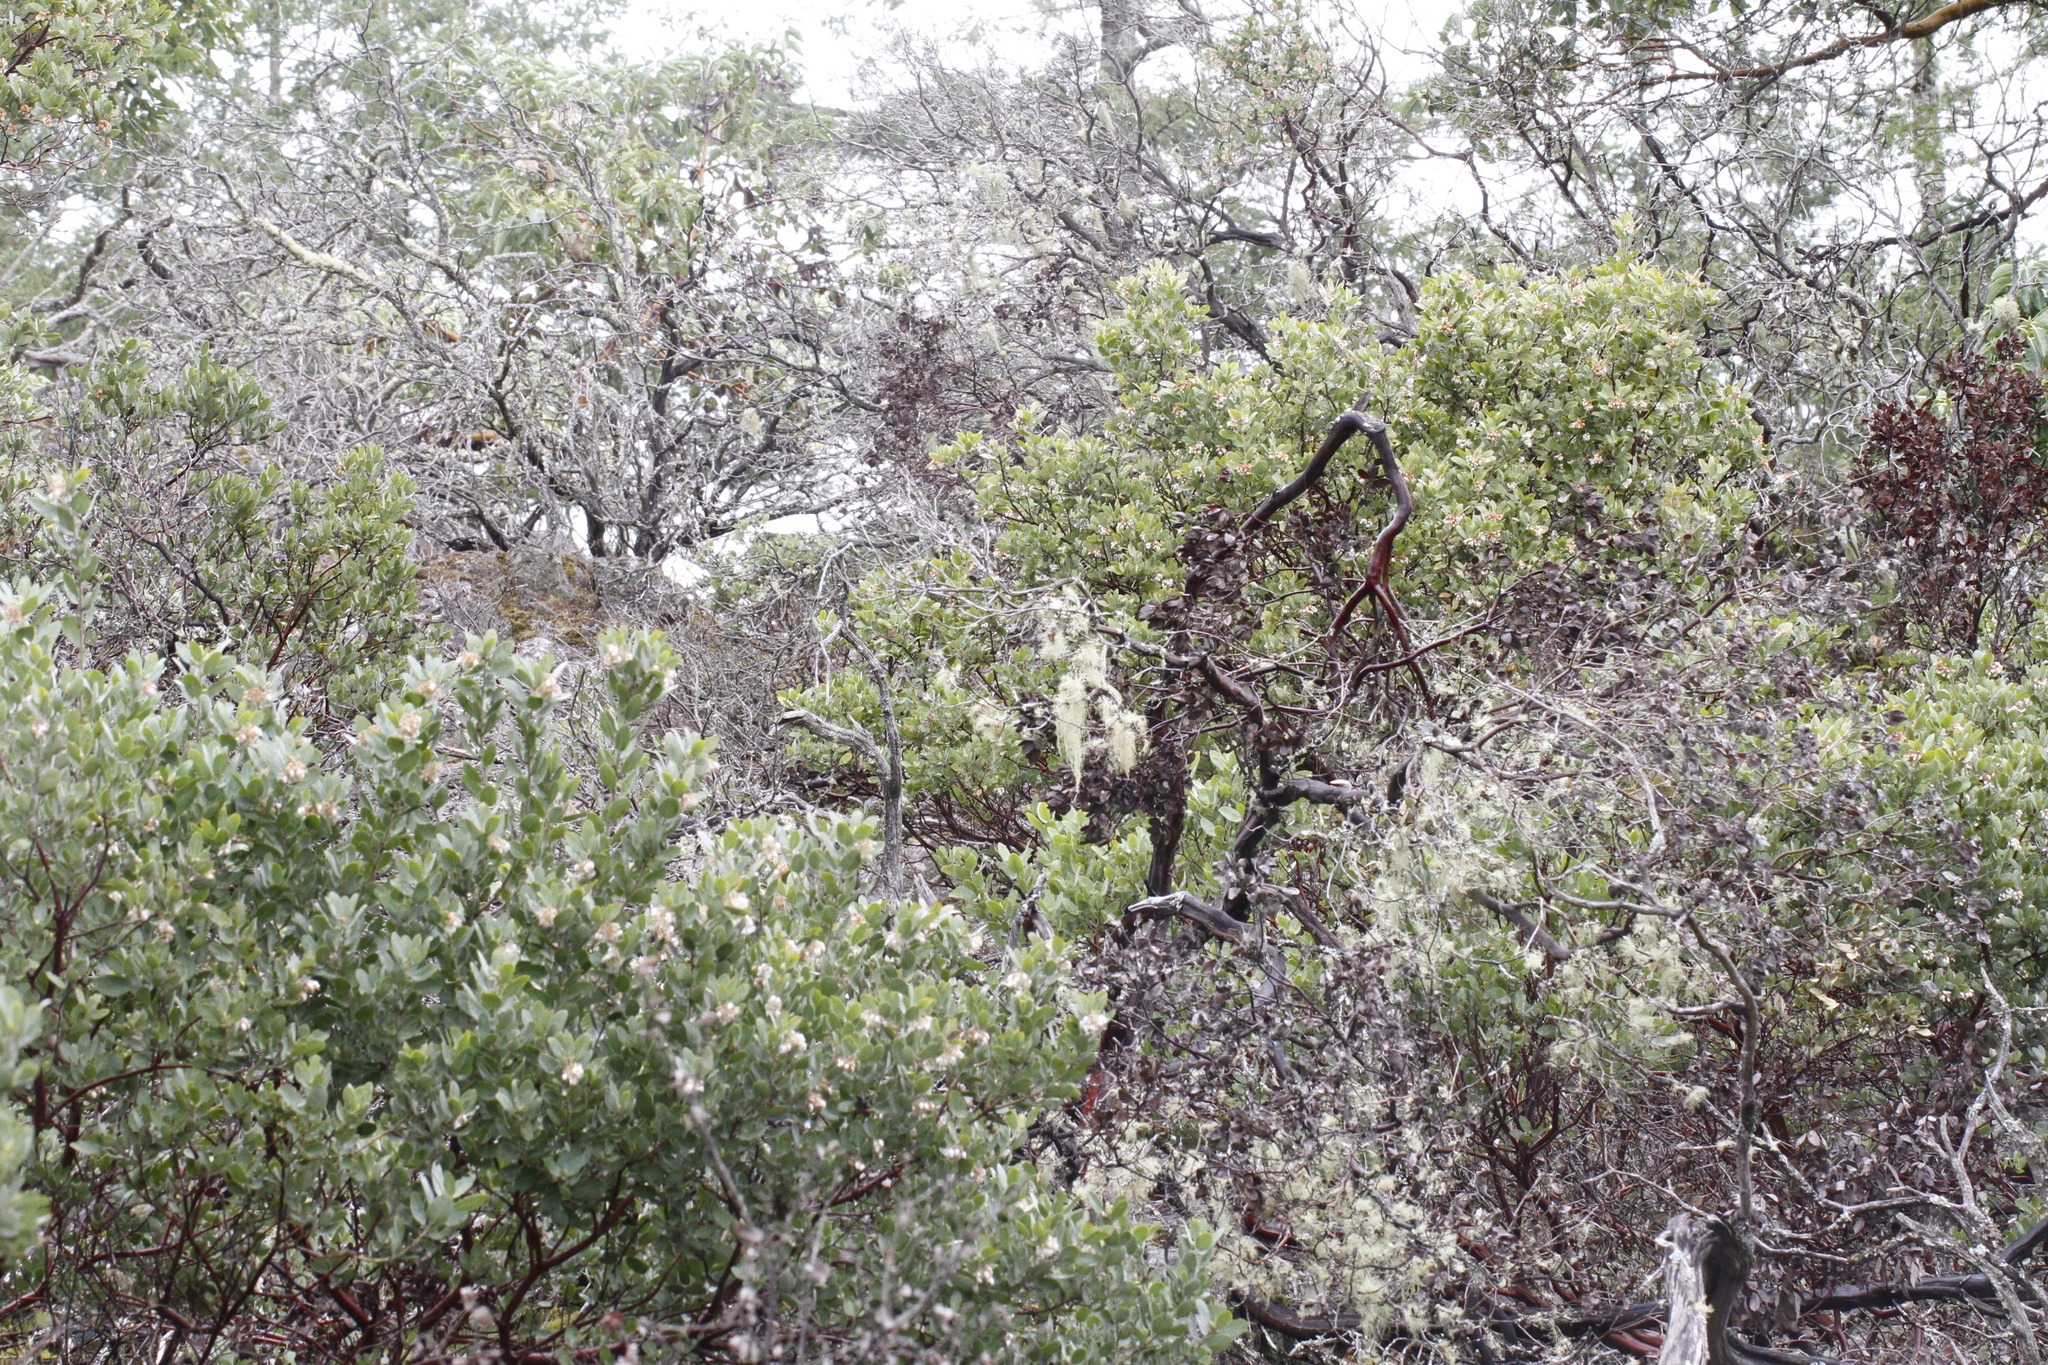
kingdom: Plantae
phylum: Tracheophyta
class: Magnoliopsida
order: Ericales
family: Ericaceae
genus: Arctostaphylos
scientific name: Arctostaphylos columbiana
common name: Bristly bearberry
